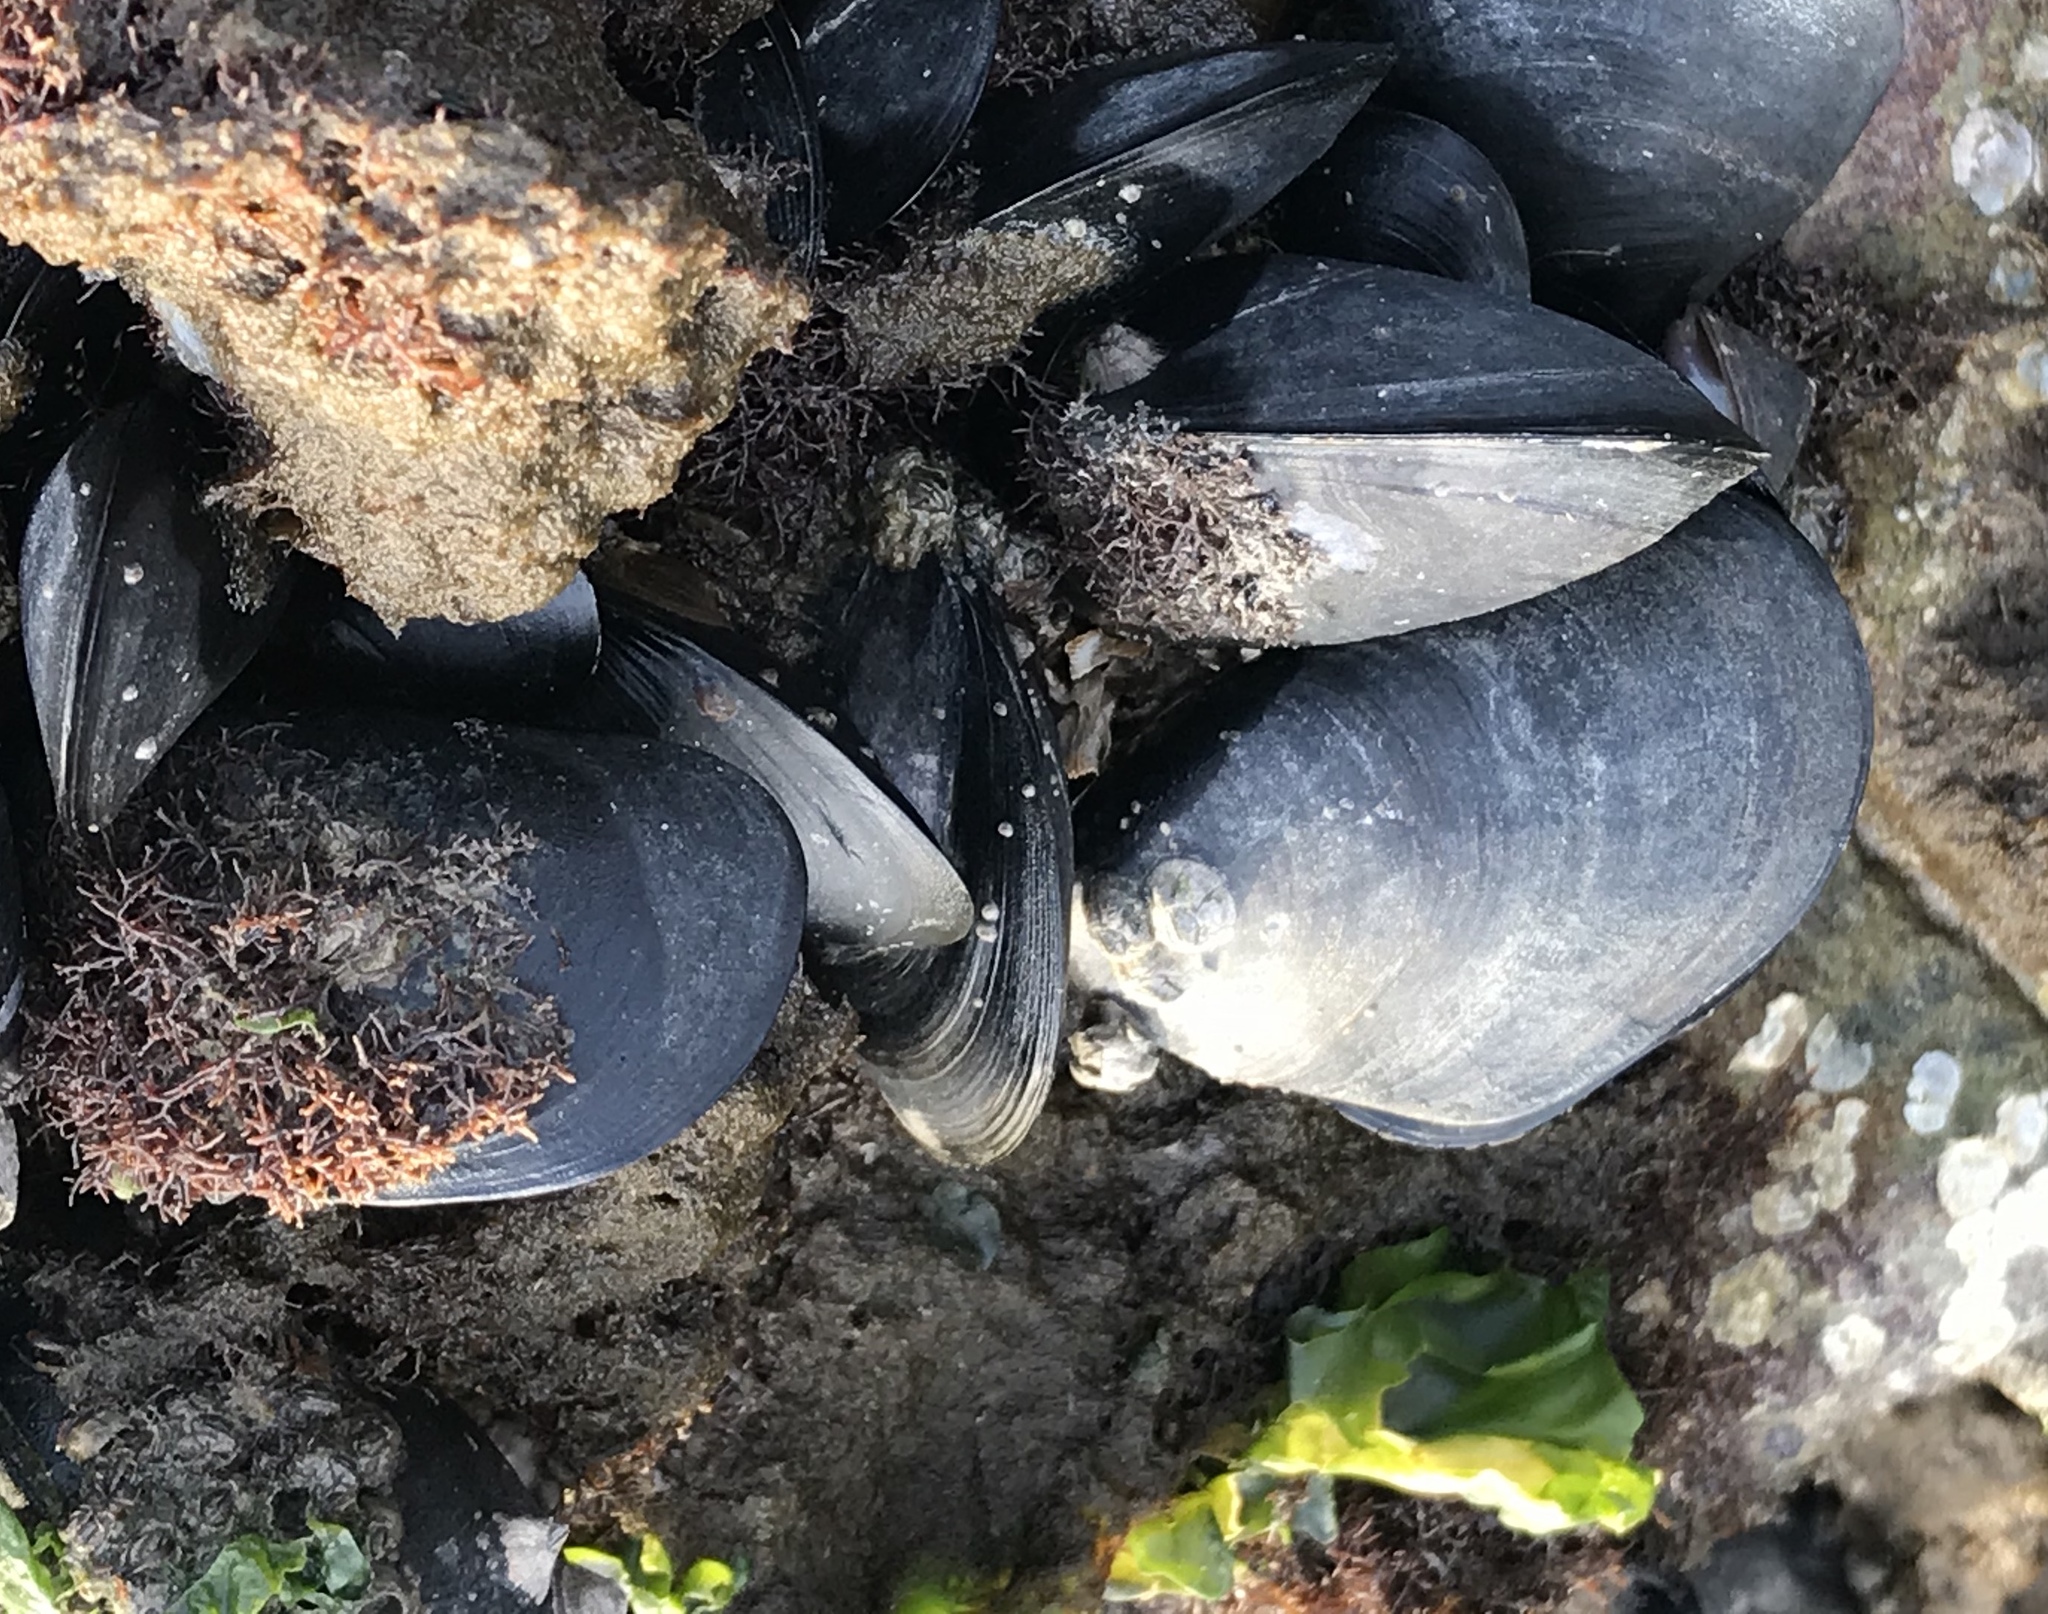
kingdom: Animalia
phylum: Mollusca
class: Bivalvia
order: Mytilida
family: Mytilidae
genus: Mytilus
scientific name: Mytilus
